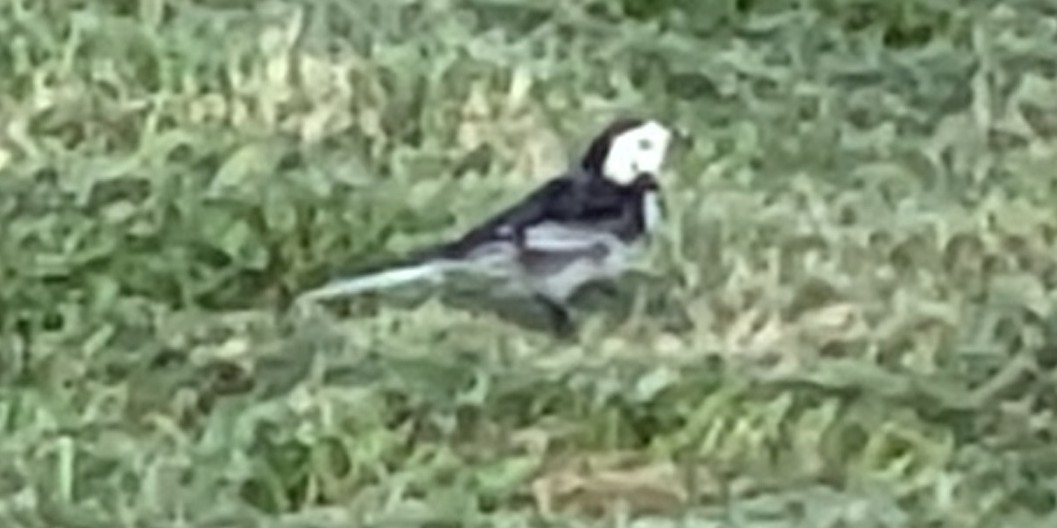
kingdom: Animalia
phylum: Chordata
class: Aves
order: Passeriformes
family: Motacillidae
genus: Motacilla
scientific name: Motacilla alba
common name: White wagtail
